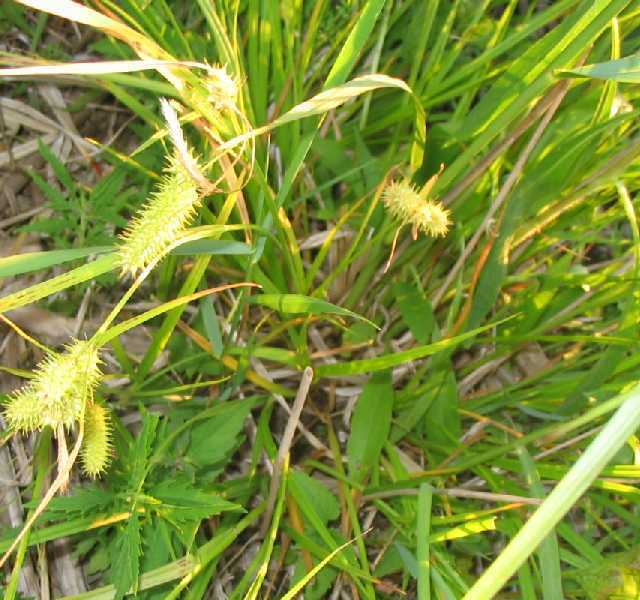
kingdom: Plantae
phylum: Tracheophyta
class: Liliopsida
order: Poales
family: Cyperaceae
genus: Carex
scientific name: Carex comosa
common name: Bristly sedge
